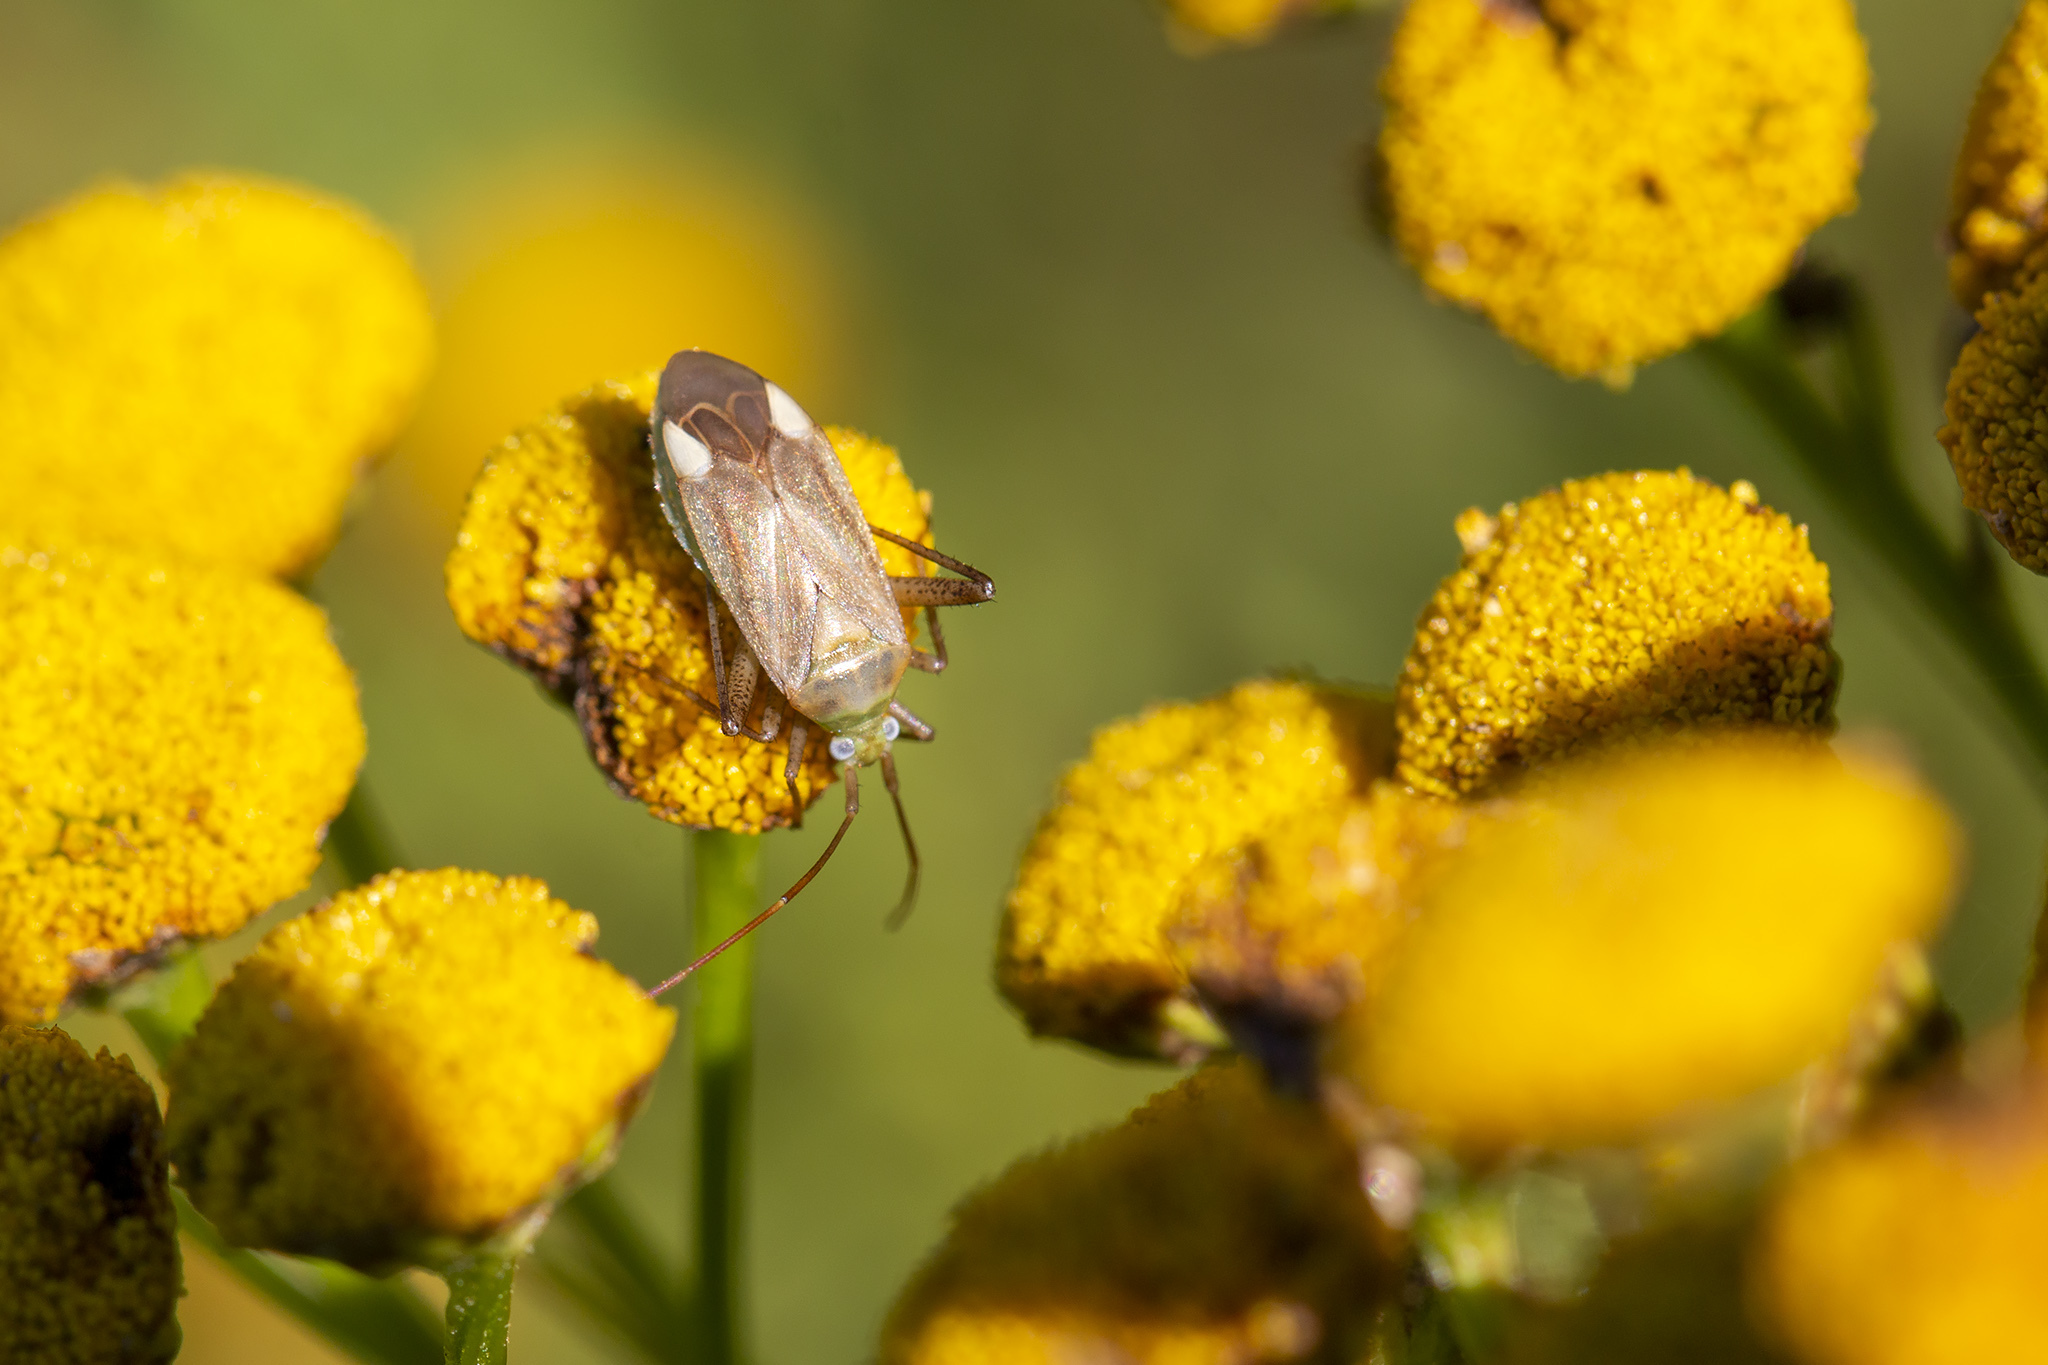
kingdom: Animalia
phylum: Arthropoda
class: Insecta
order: Hemiptera
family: Miridae
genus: Adelphocoris
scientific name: Adelphocoris lineolatus
